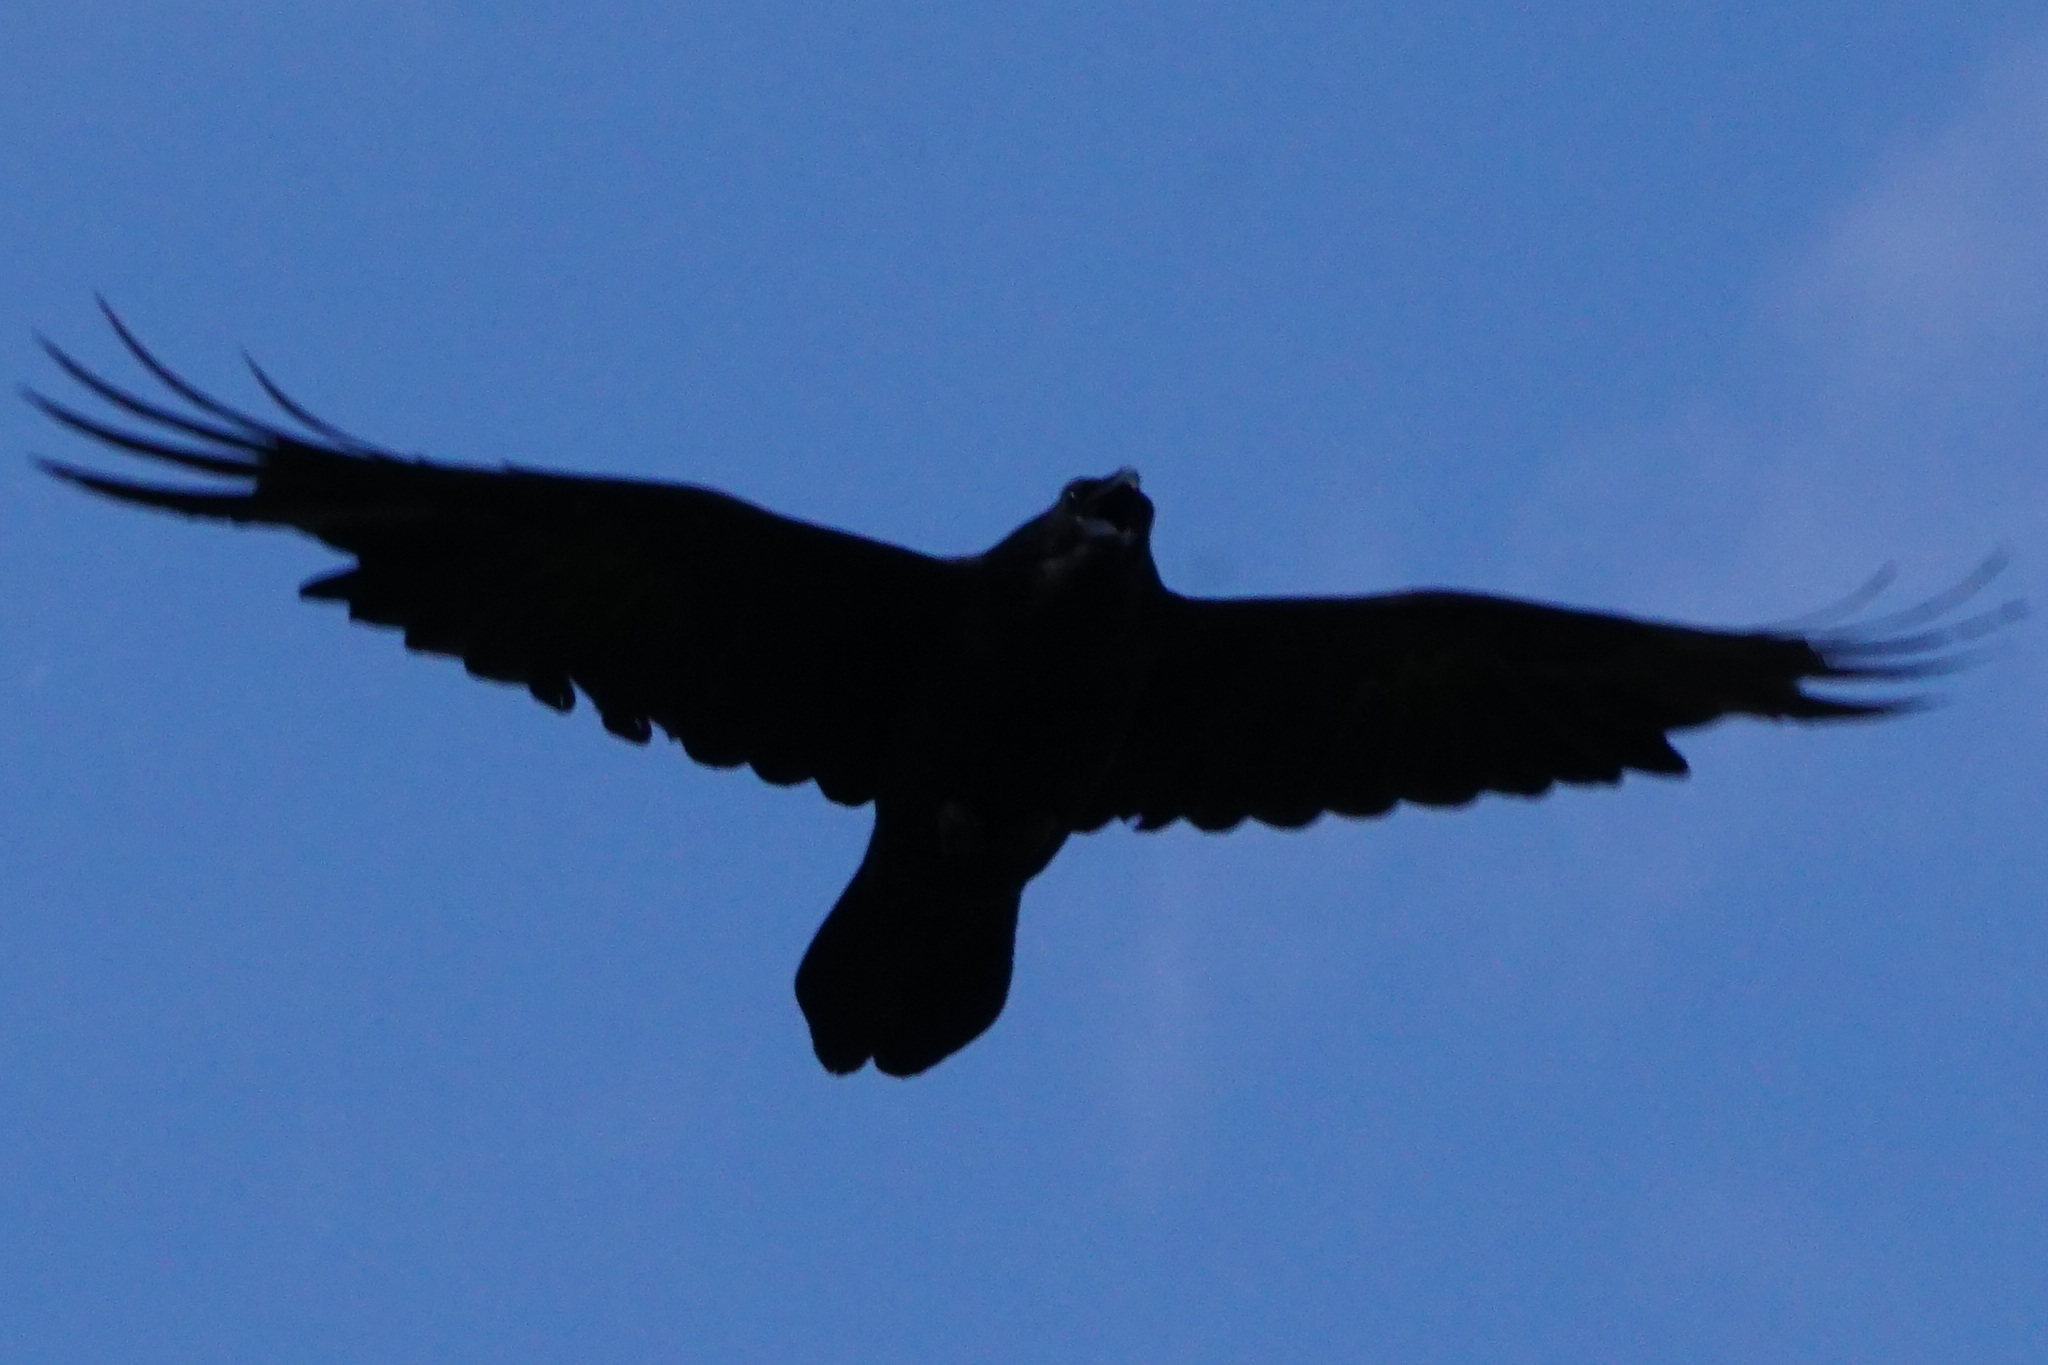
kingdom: Animalia
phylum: Chordata
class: Aves
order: Passeriformes
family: Corvidae
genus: Corvus
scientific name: Corvus corax
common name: Common raven
